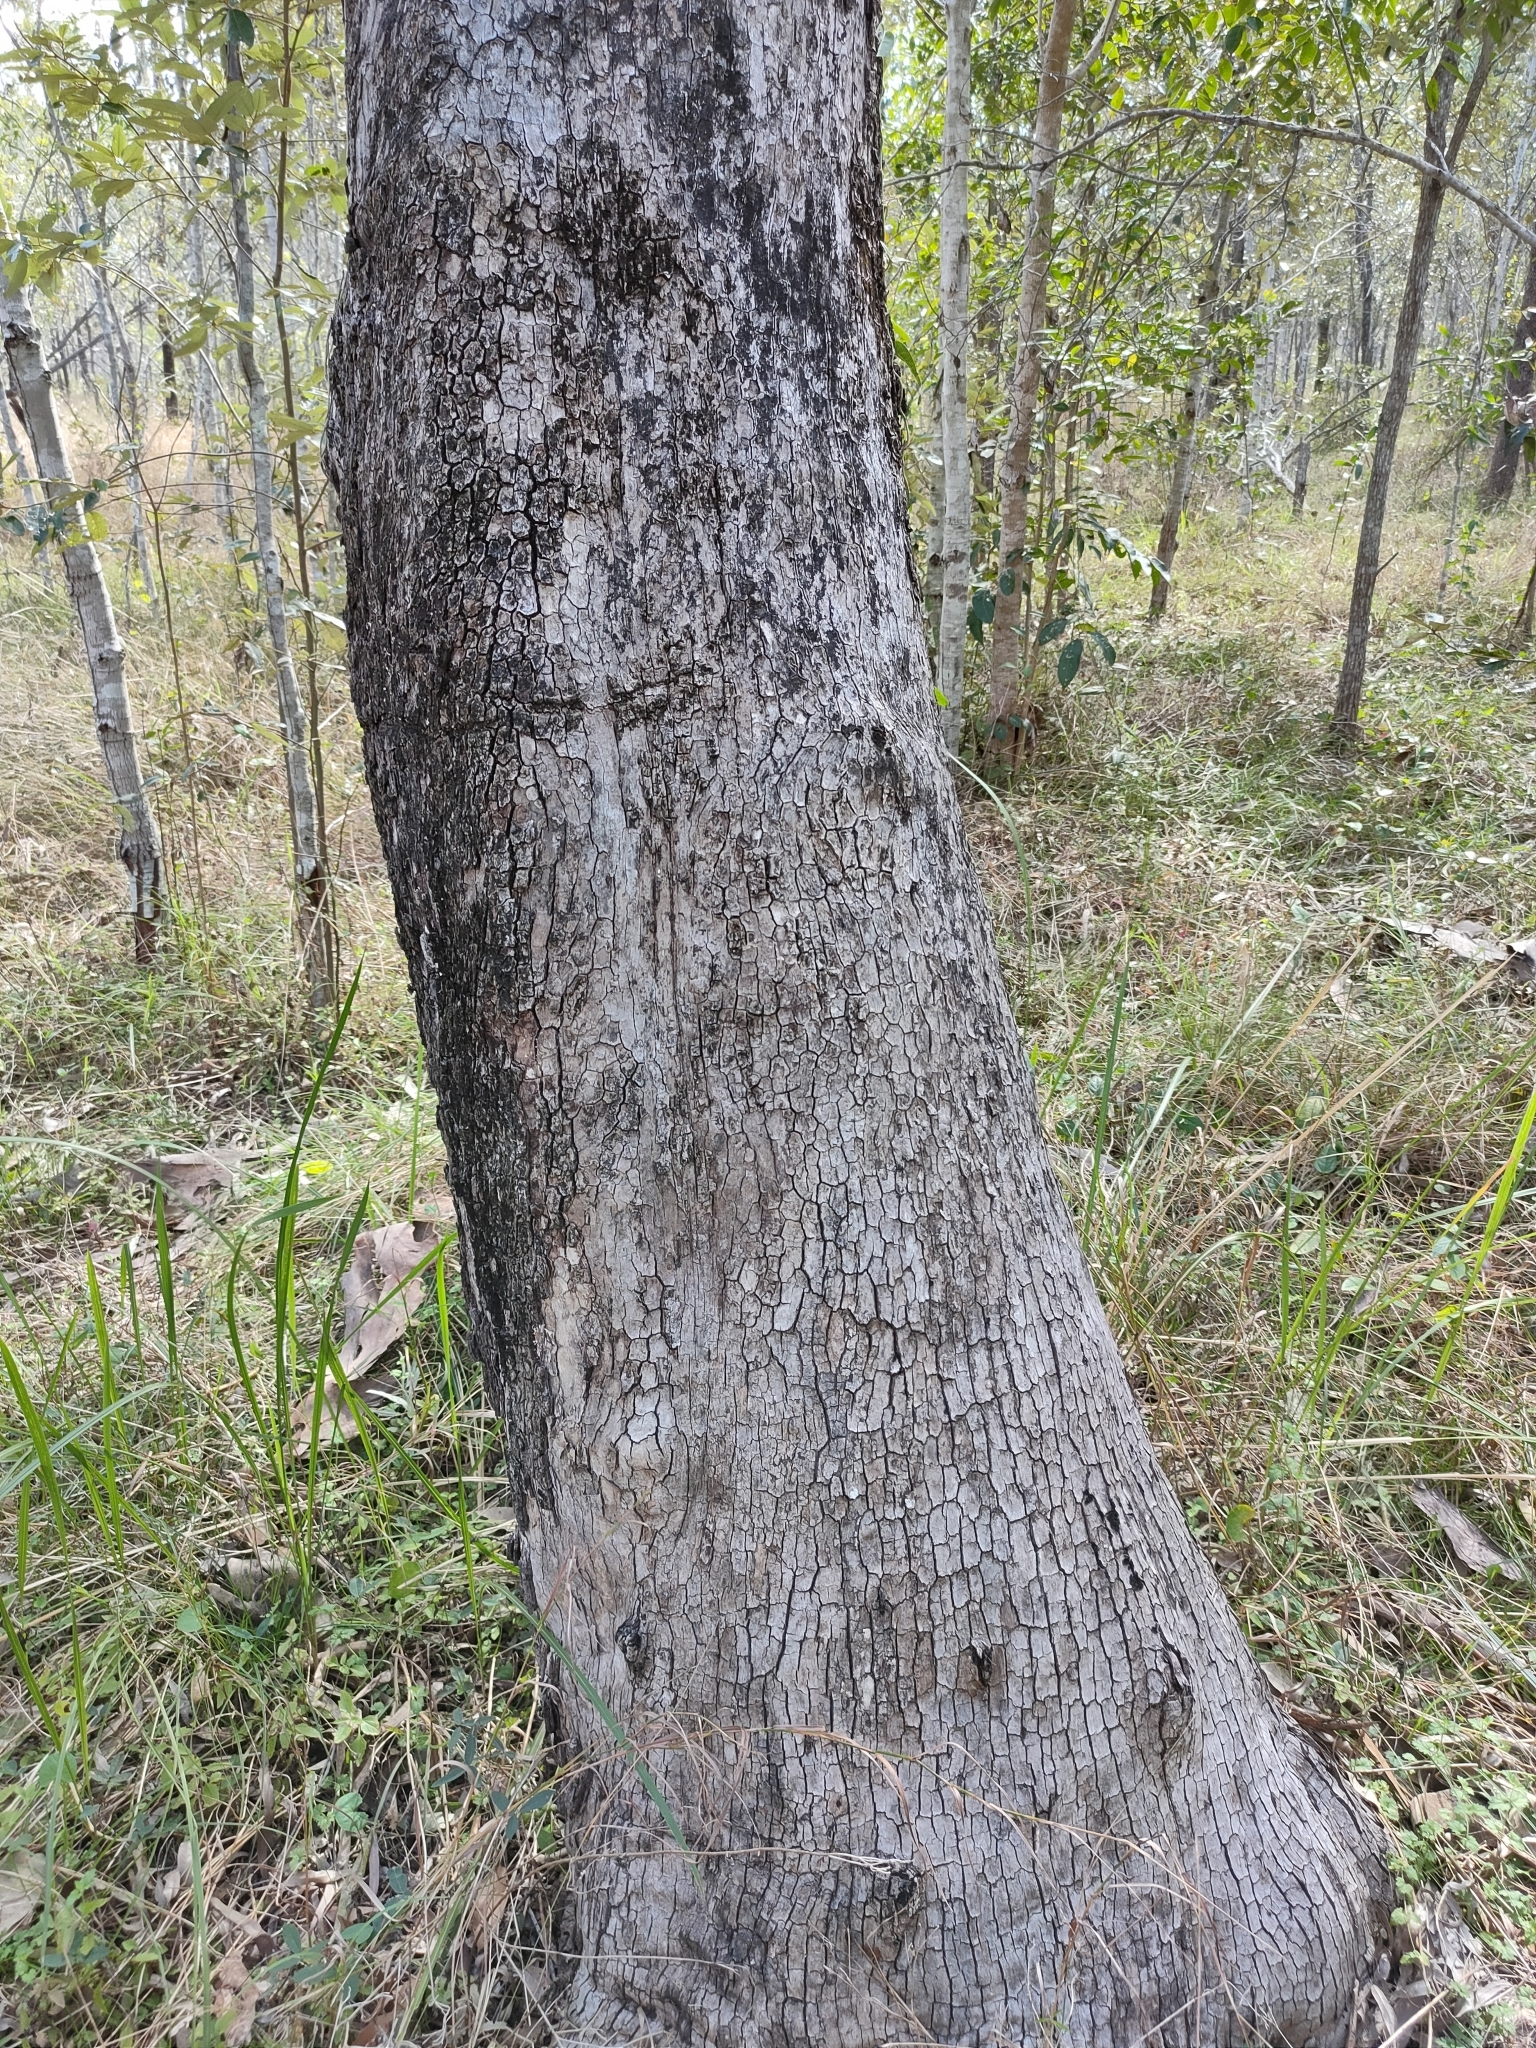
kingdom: Plantae
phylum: Tracheophyta
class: Magnoliopsida
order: Myrtales
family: Myrtaceae
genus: Corymbia
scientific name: Corymbia tessellaris
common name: Carbeen
